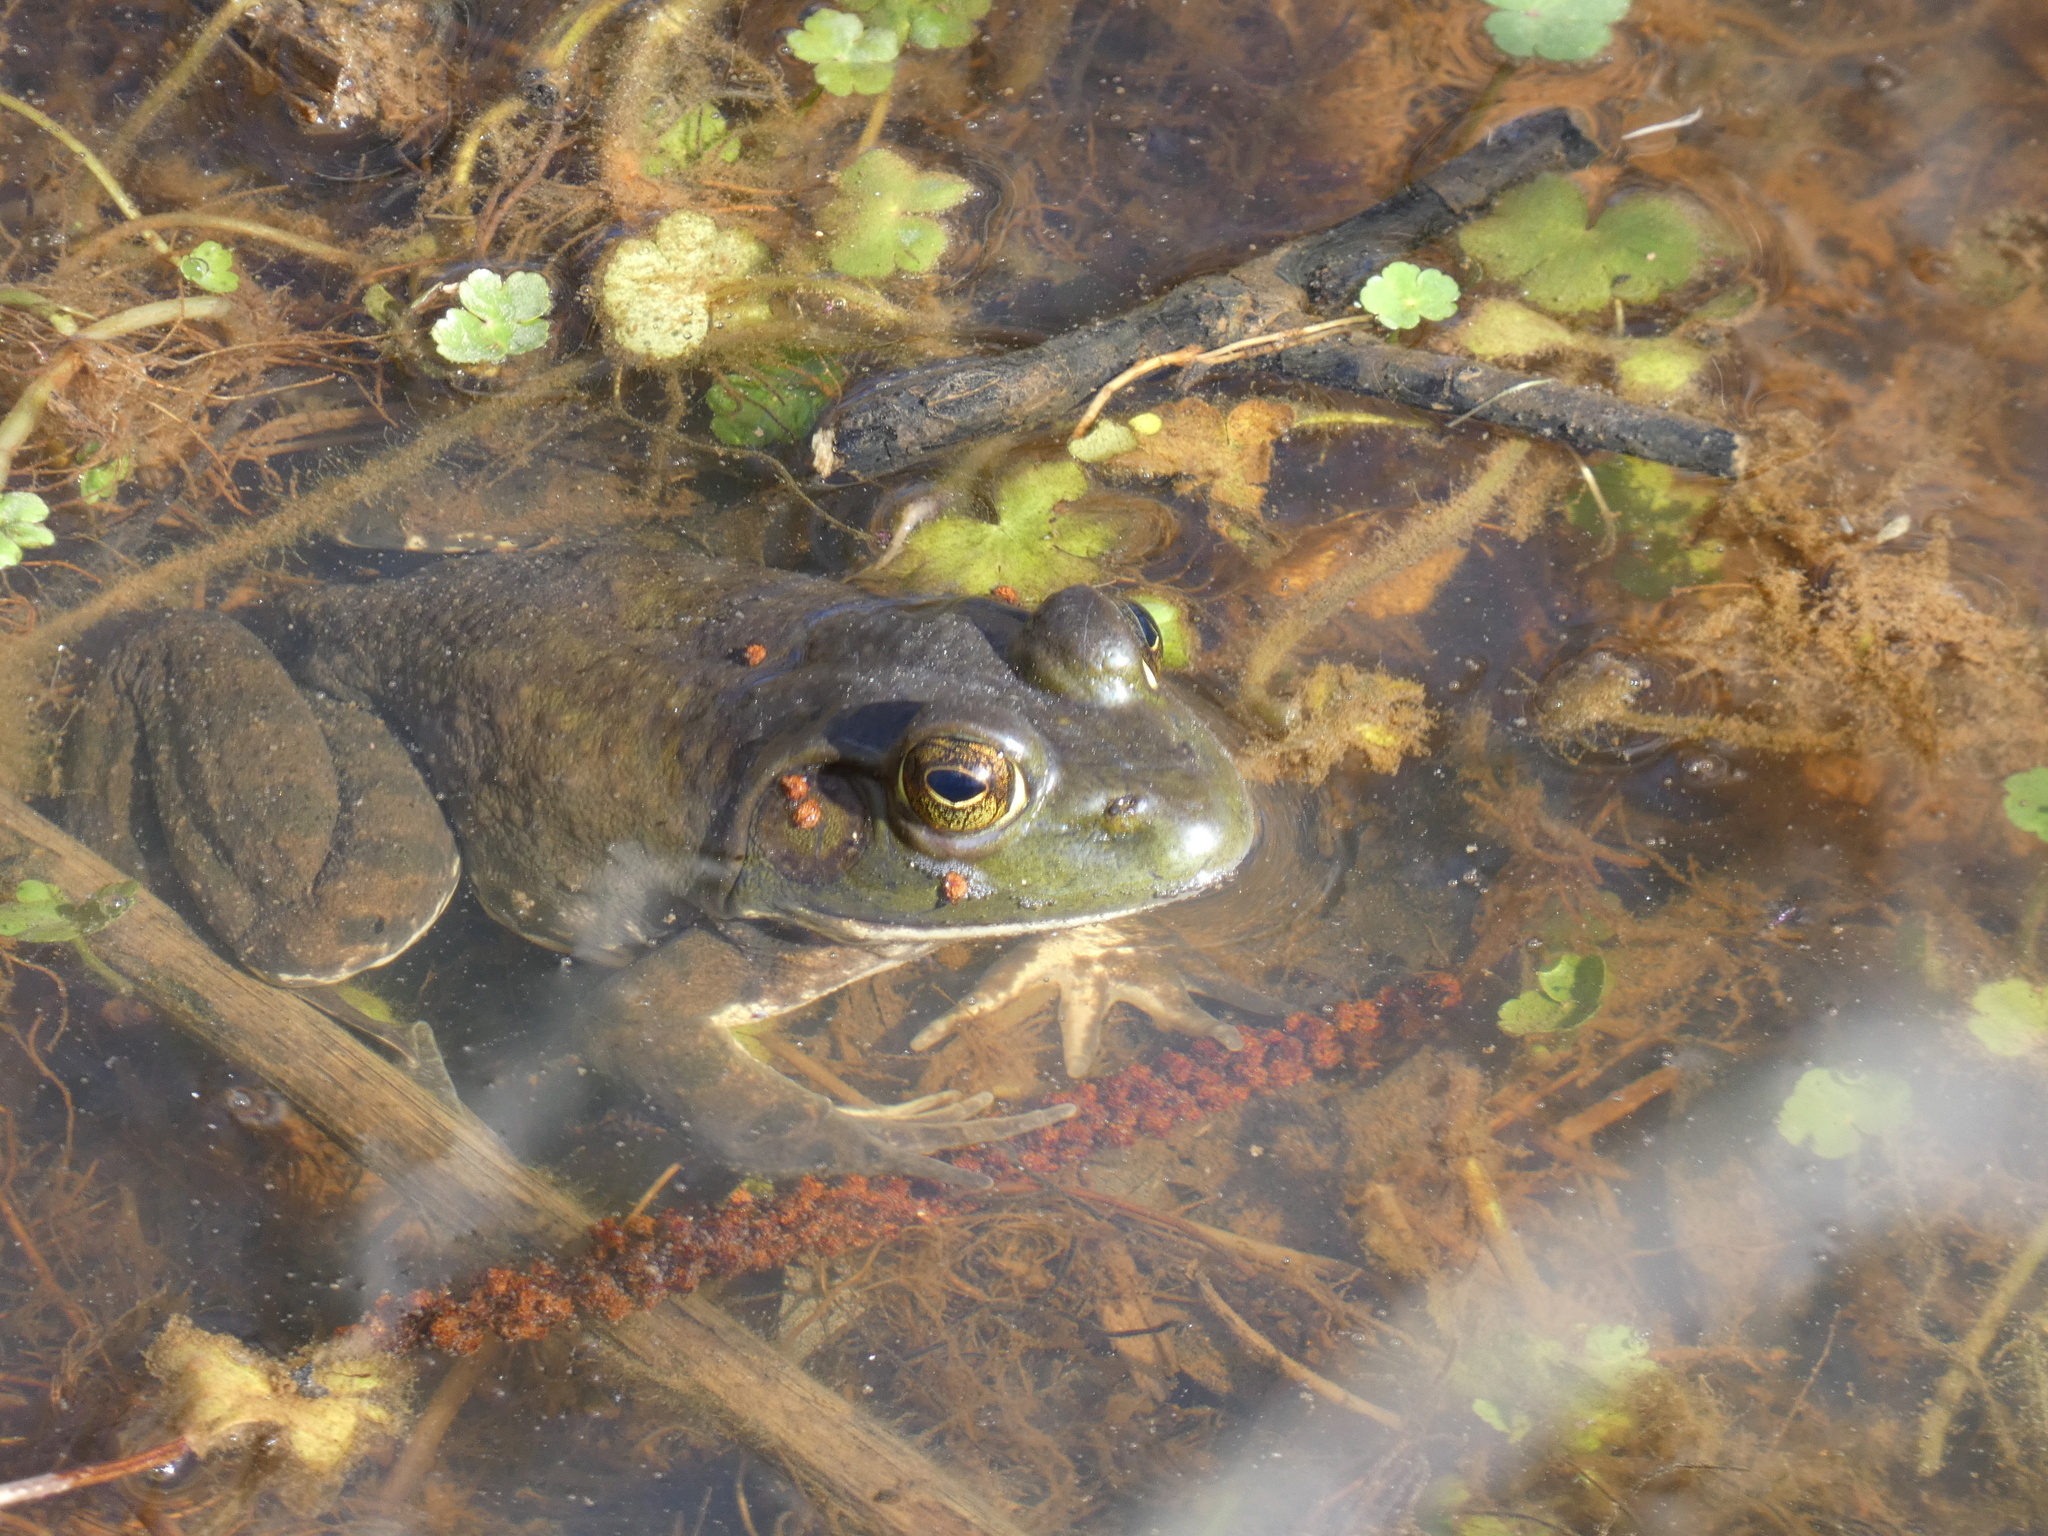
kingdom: Animalia
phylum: Chordata
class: Amphibia
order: Anura
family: Ranidae
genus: Lithobates
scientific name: Lithobates catesbeianus
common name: American bullfrog
